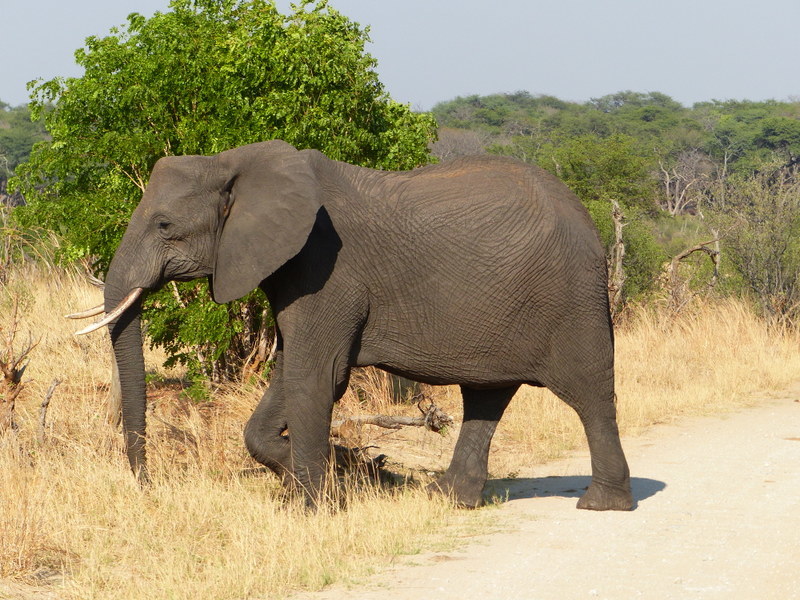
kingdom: Animalia
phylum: Chordata
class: Mammalia
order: Proboscidea
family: Elephantidae
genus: Loxodonta
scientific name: Loxodonta africana
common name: African elephant
